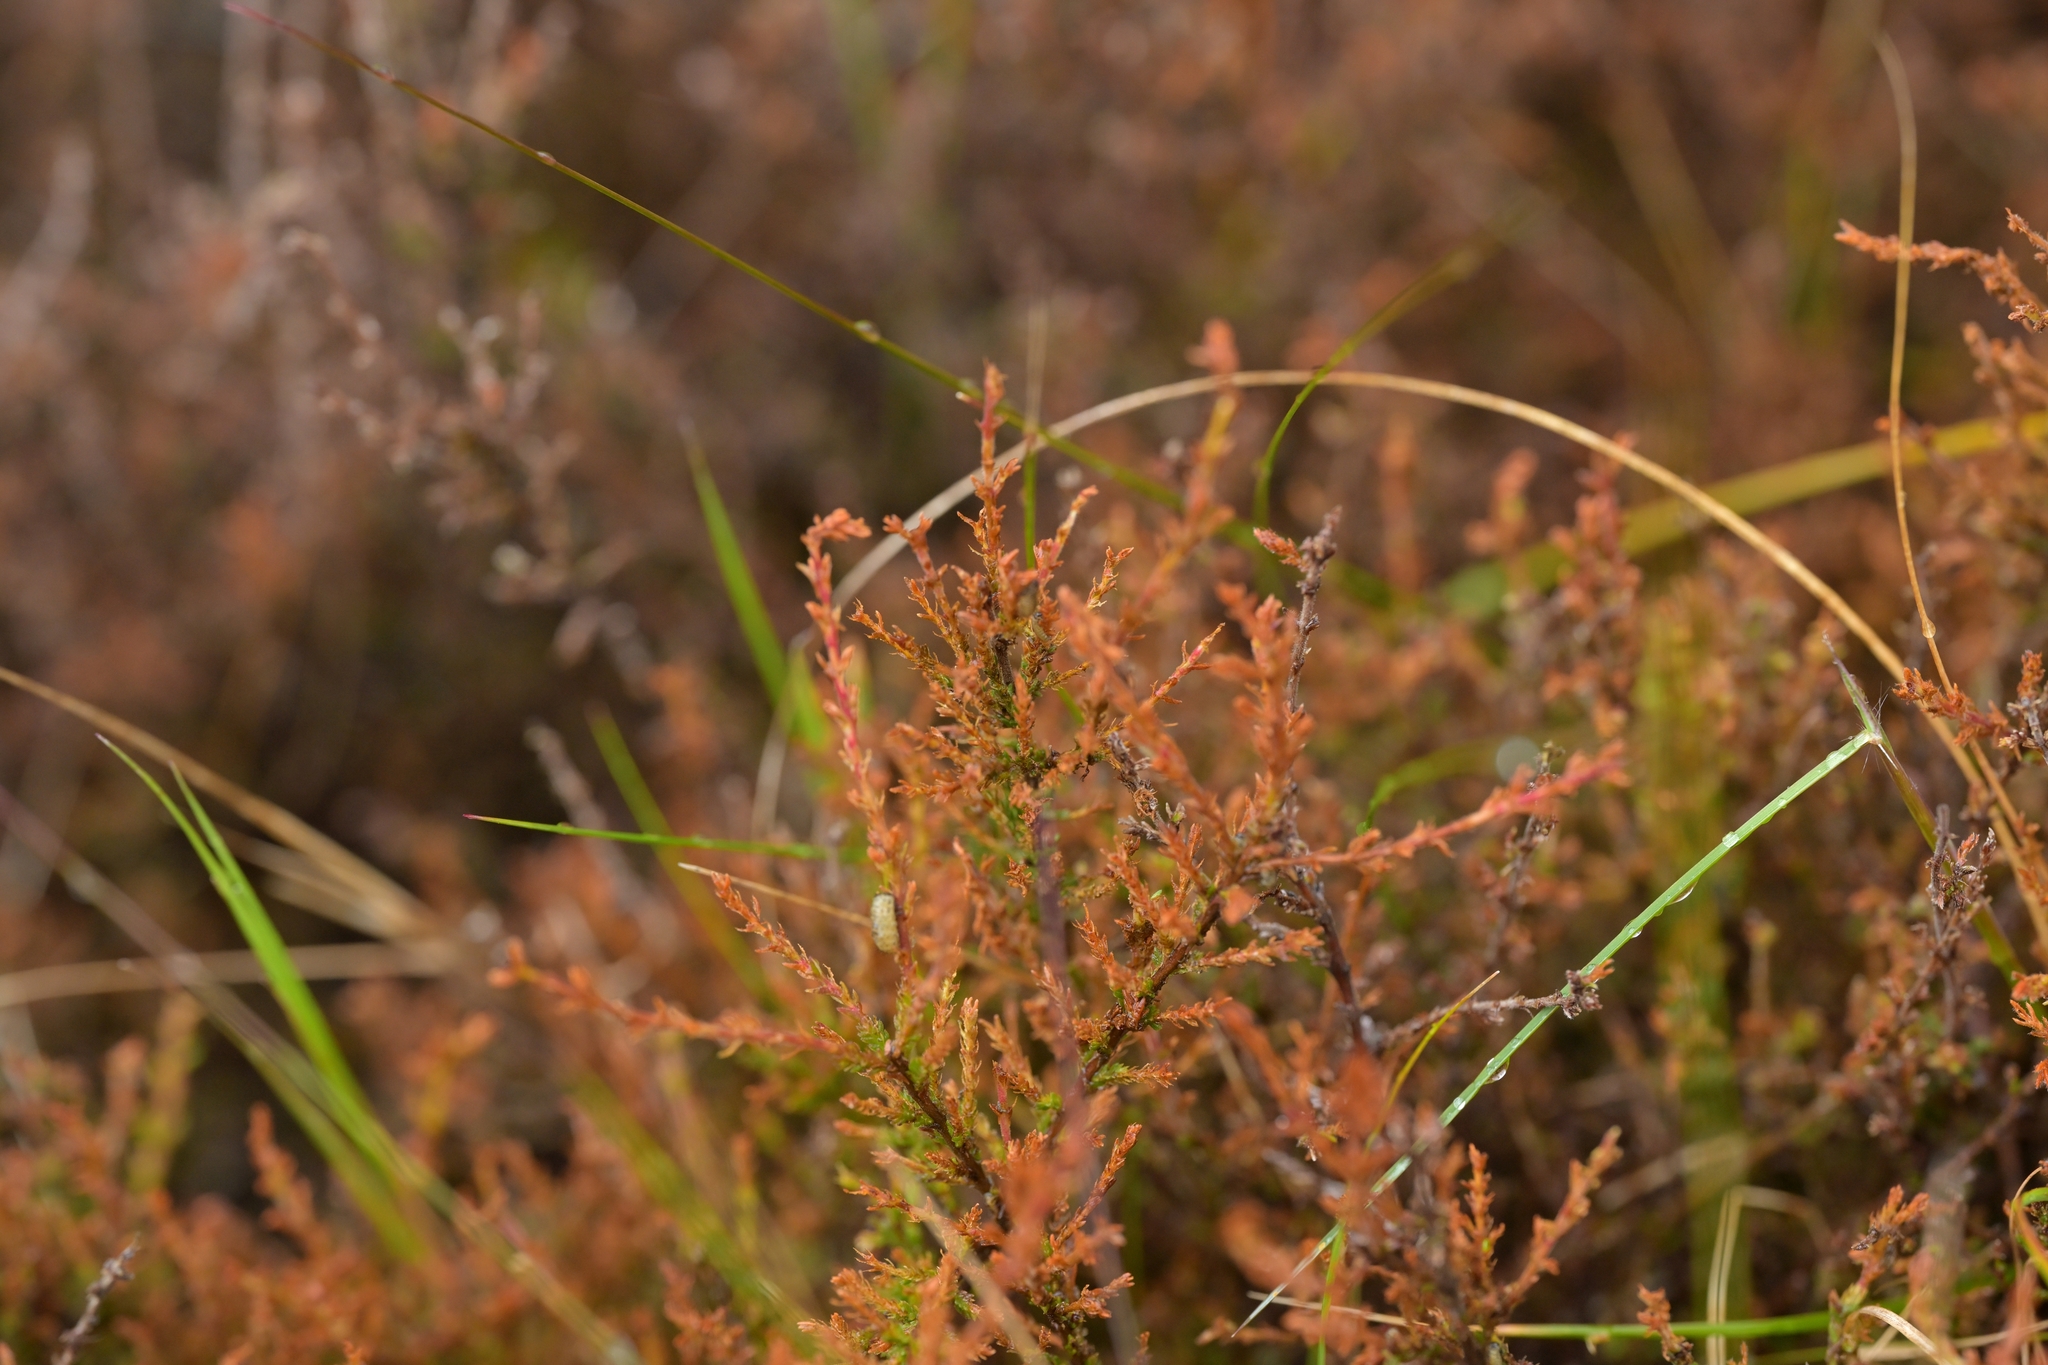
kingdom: Plantae
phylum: Tracheophyta
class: Magnoliopsida
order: Ericales
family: Ericaceae
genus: Calluna
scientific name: Calluna vulgaris
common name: Heather
